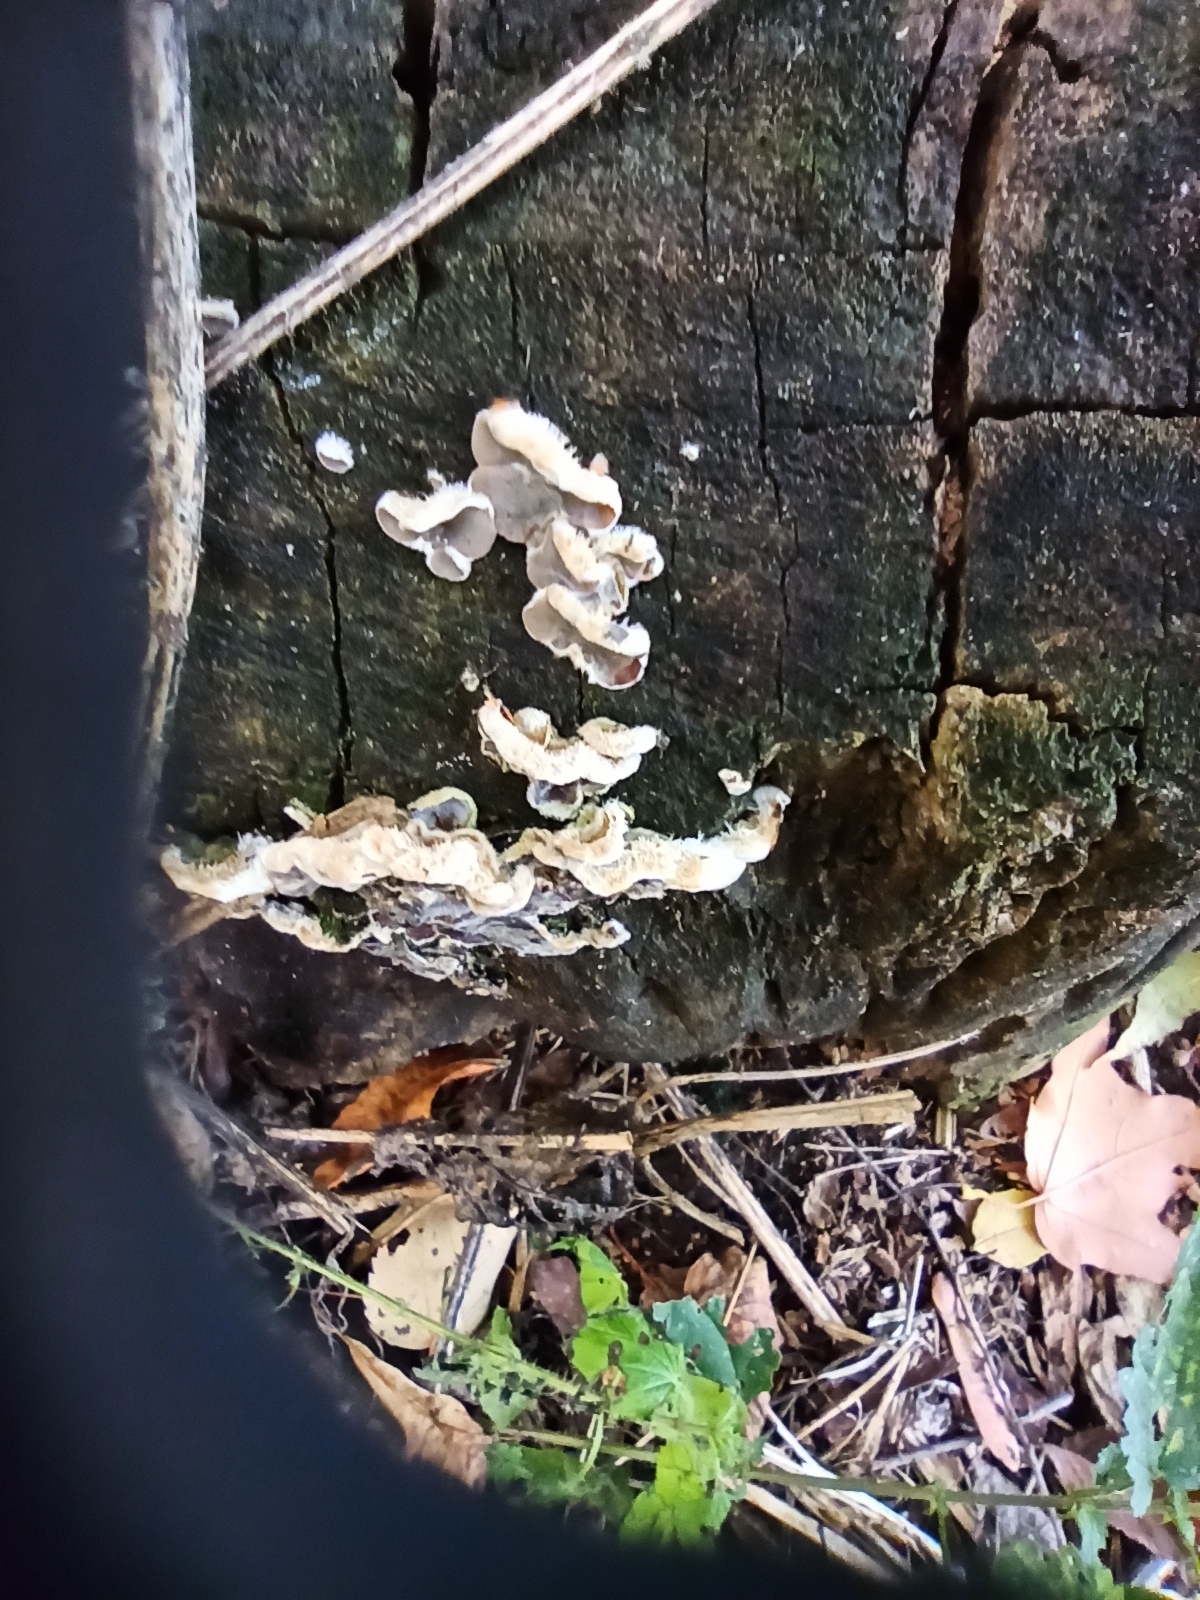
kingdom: Fungi
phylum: Basidiomycota
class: Agaricomycetes
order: Auriculariales
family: Auriculariaceae
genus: Auricularia
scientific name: Auricularia mesenterica
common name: Tripe fungus
